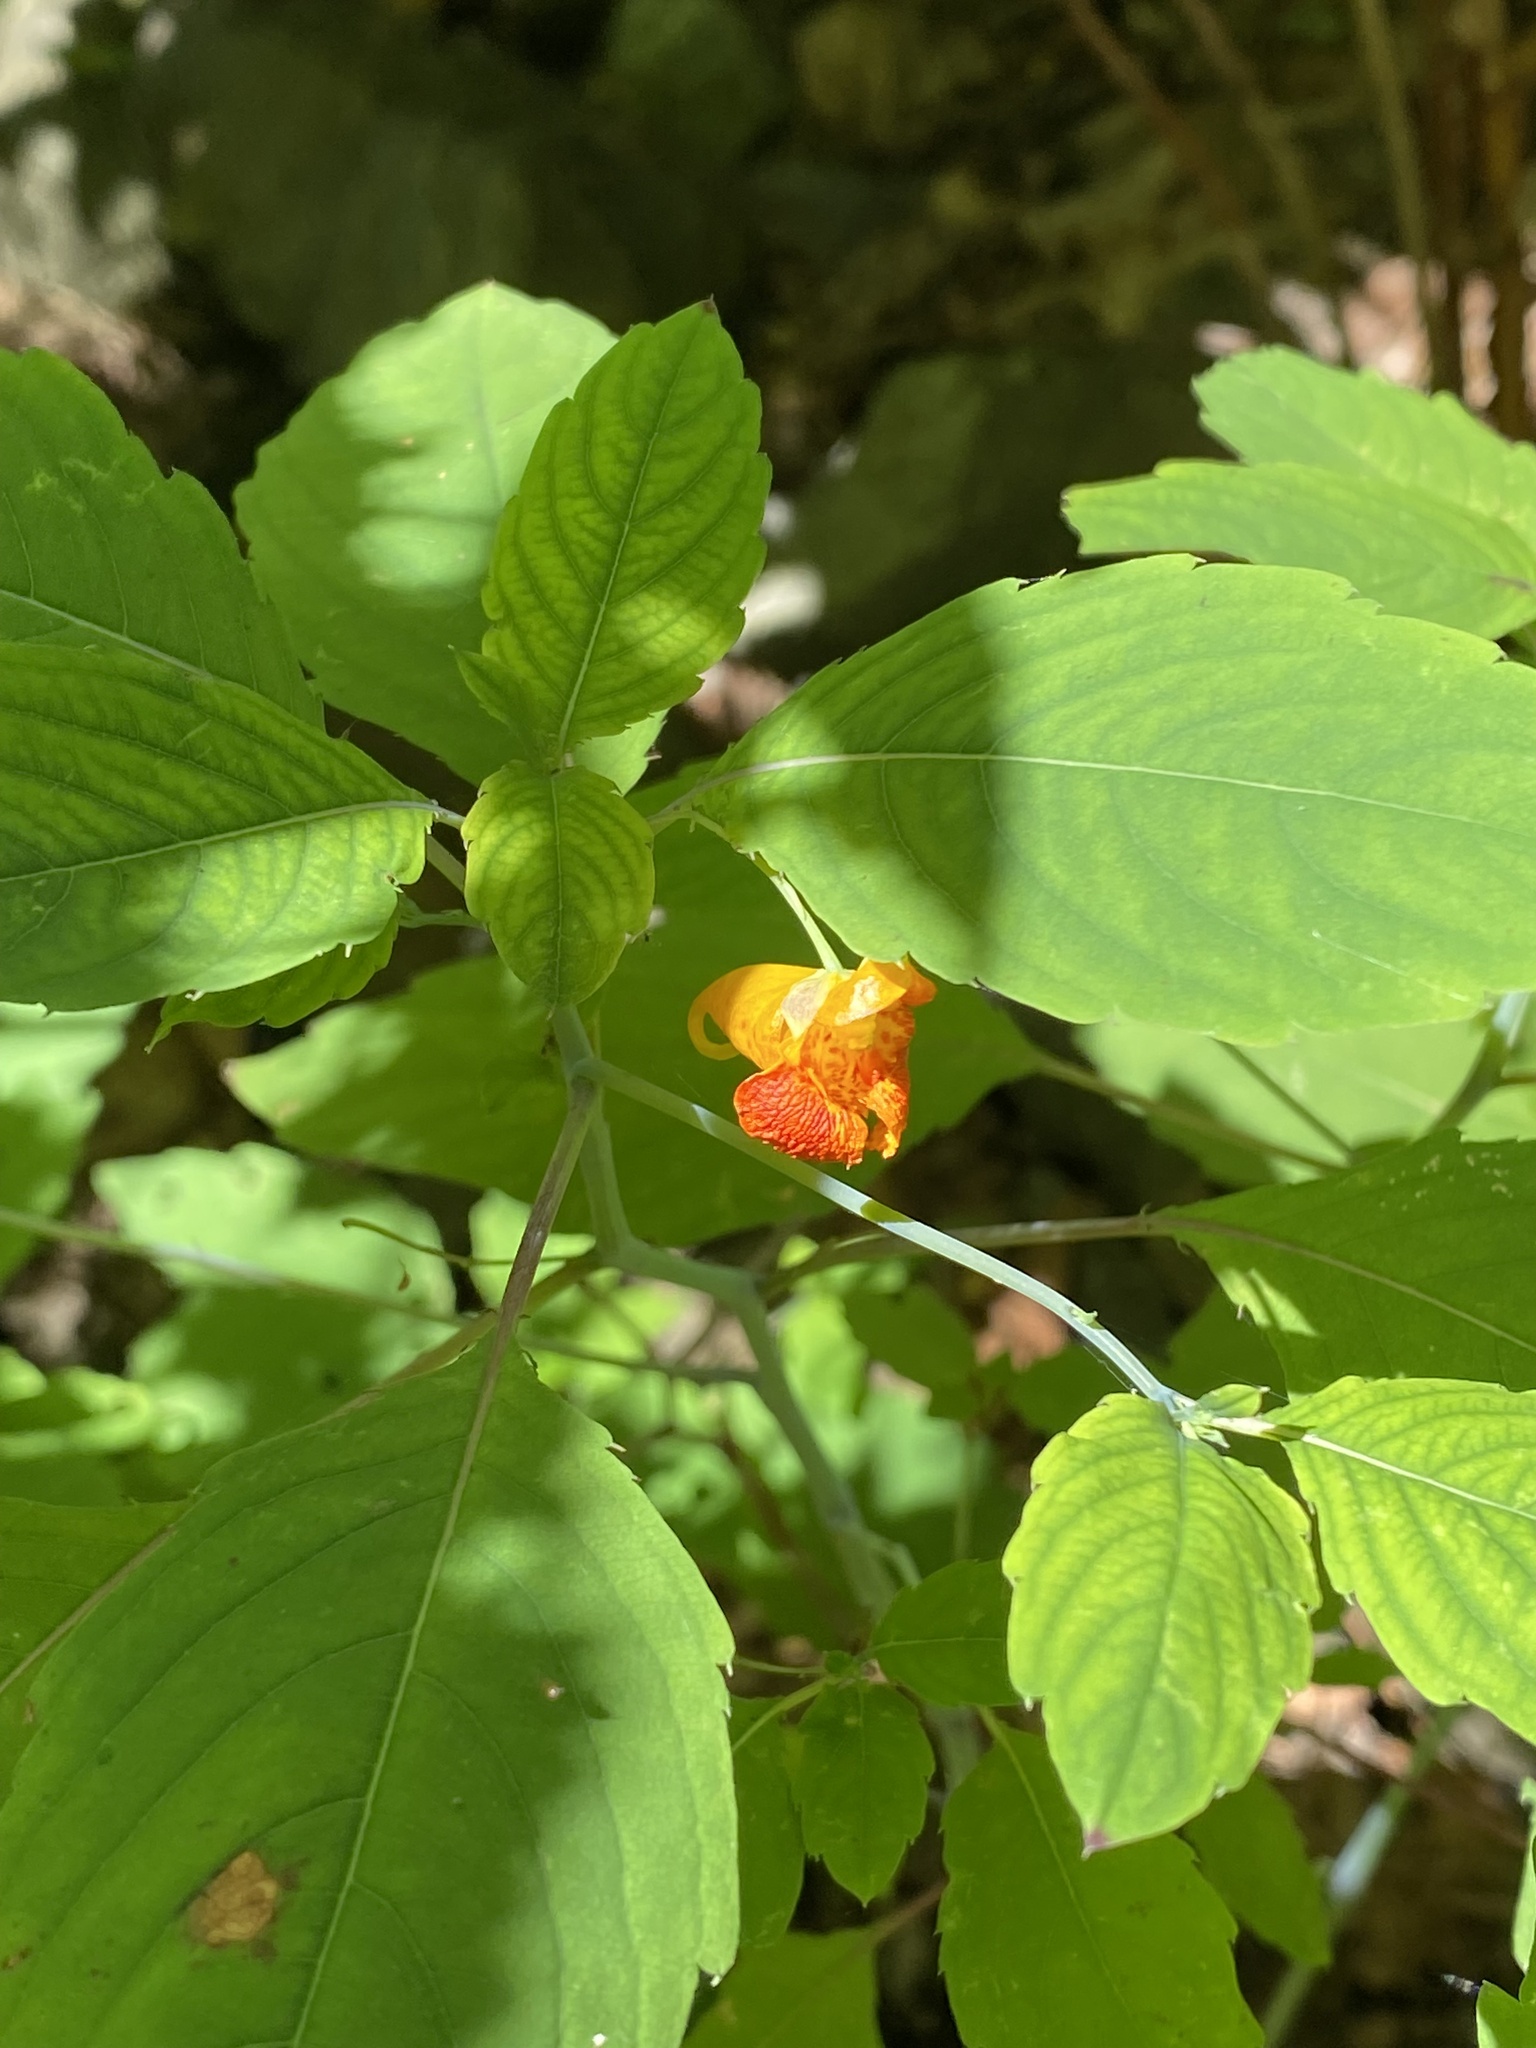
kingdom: Plantae
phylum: Tracheophyta
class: Magnoliopsida
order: Ericales
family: Balsaminaceae
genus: Impatiens
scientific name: Impatiens capensis
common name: Orange balsam
